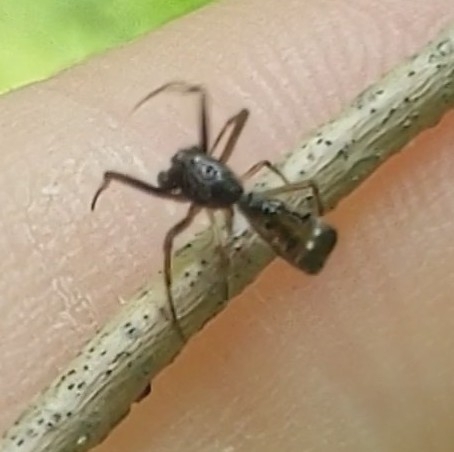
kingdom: Animalia
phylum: Arthropoda
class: Arachnida
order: Araneae
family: Araneidae
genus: Micrathena
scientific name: Micrathena sagittata
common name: Orb weavers
